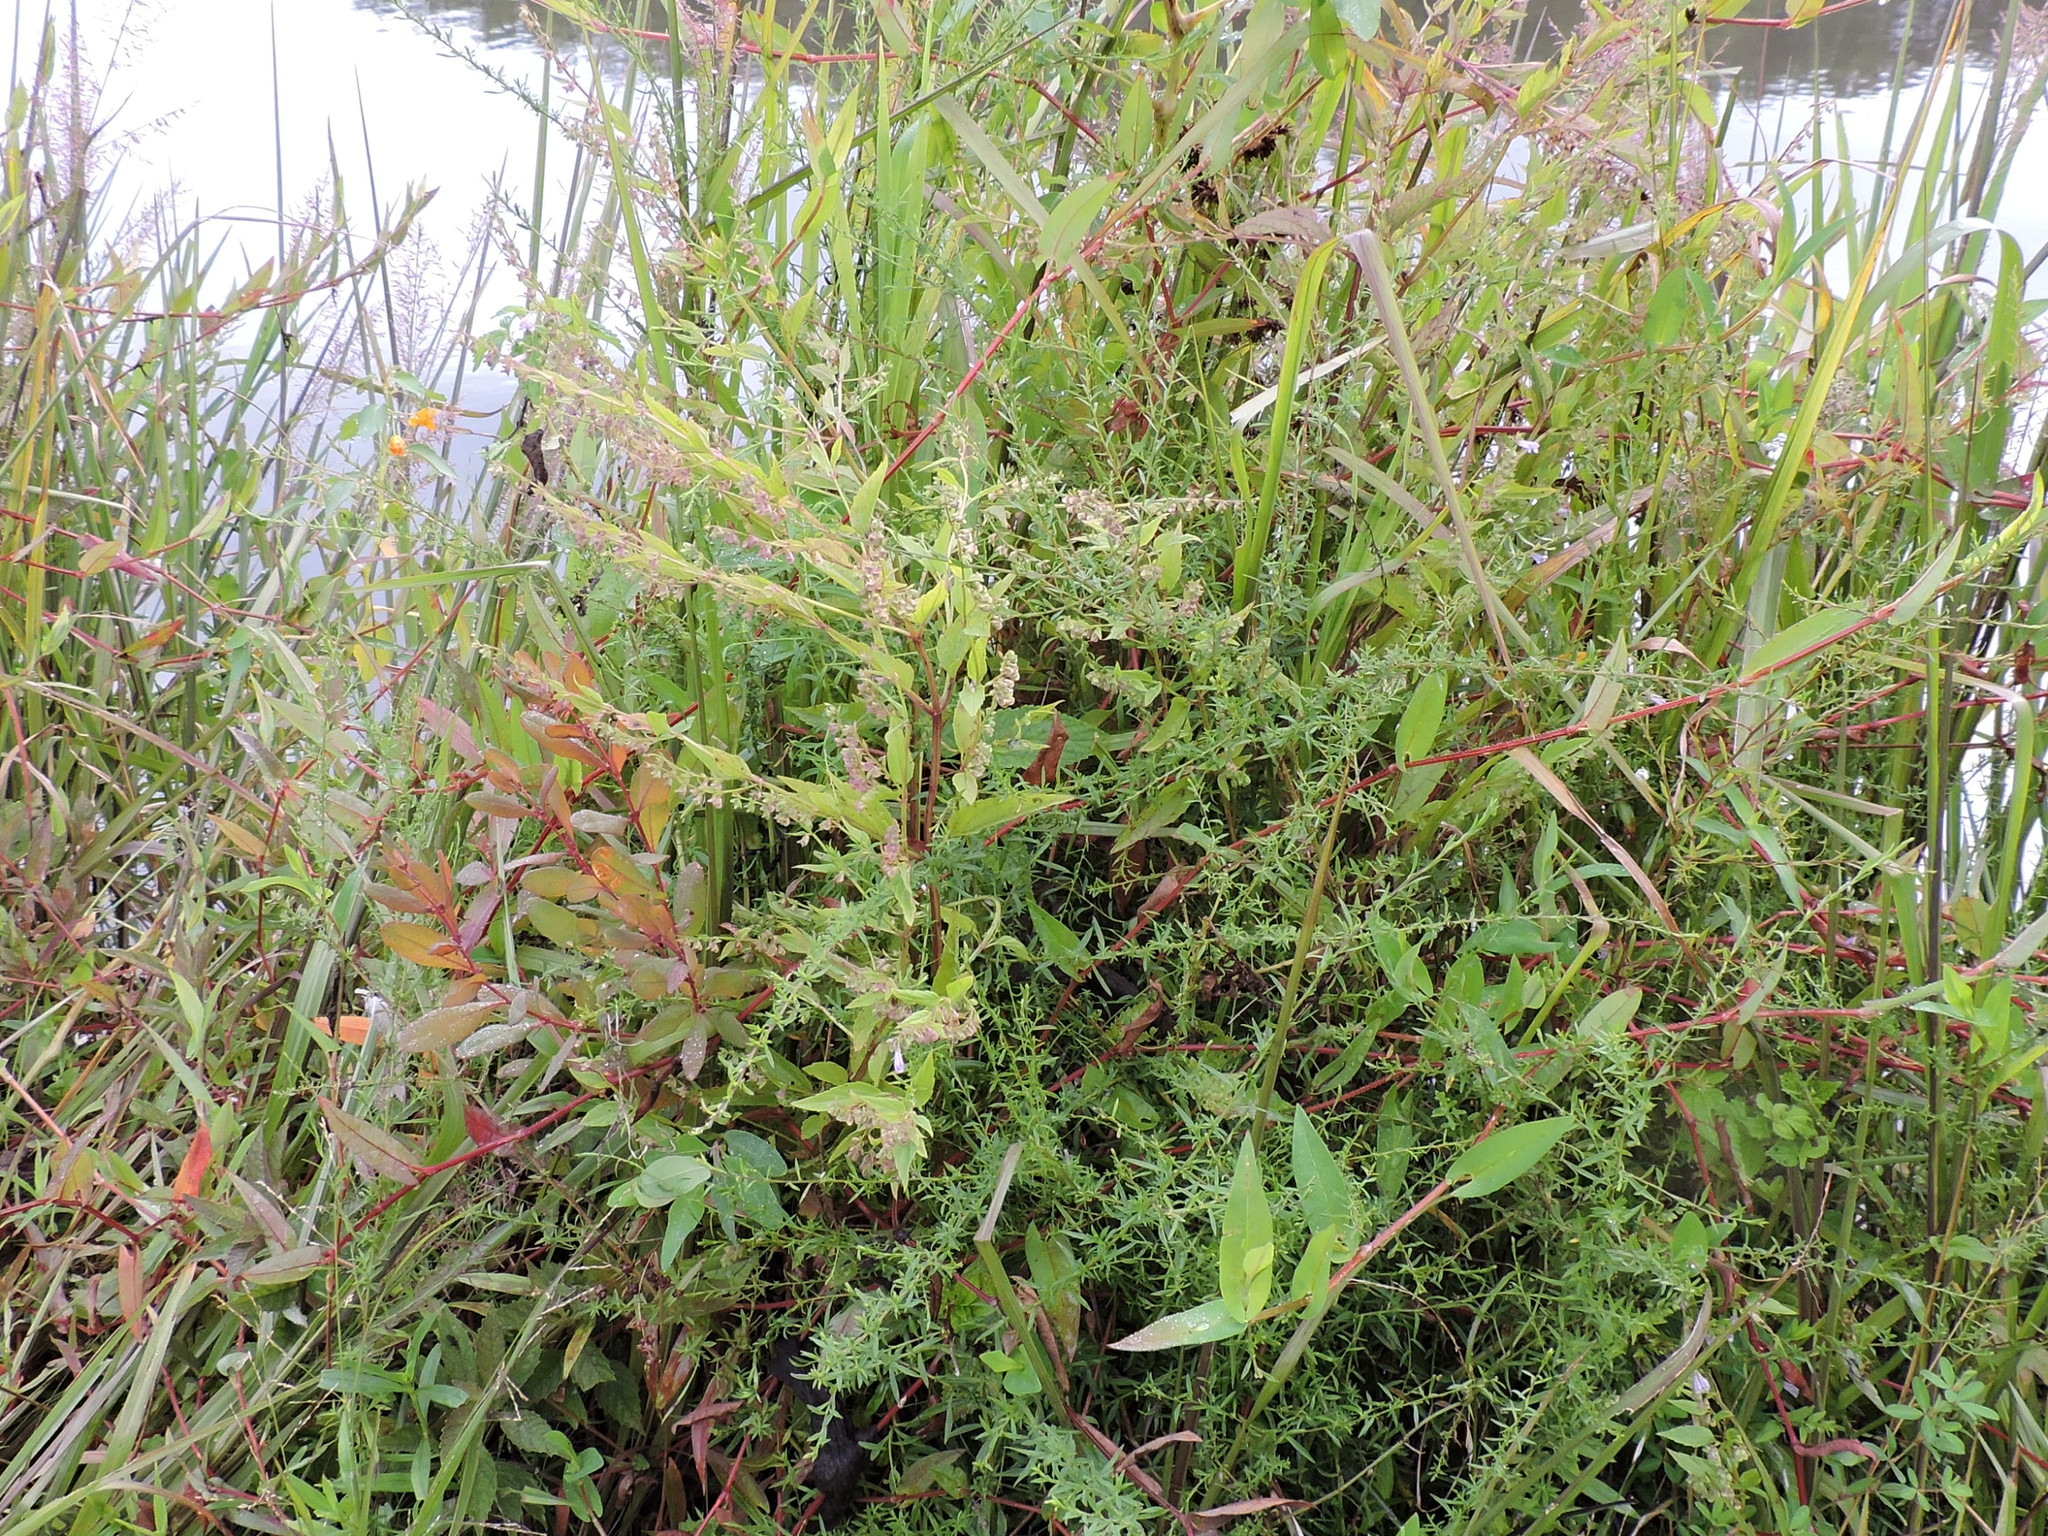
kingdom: Plantae
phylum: Tracheophyta
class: Magnoliopsida
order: Lamiales
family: Lamiaceae
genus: Scutellaria
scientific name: Scutellaria lateriflora
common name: Blue skullcap
